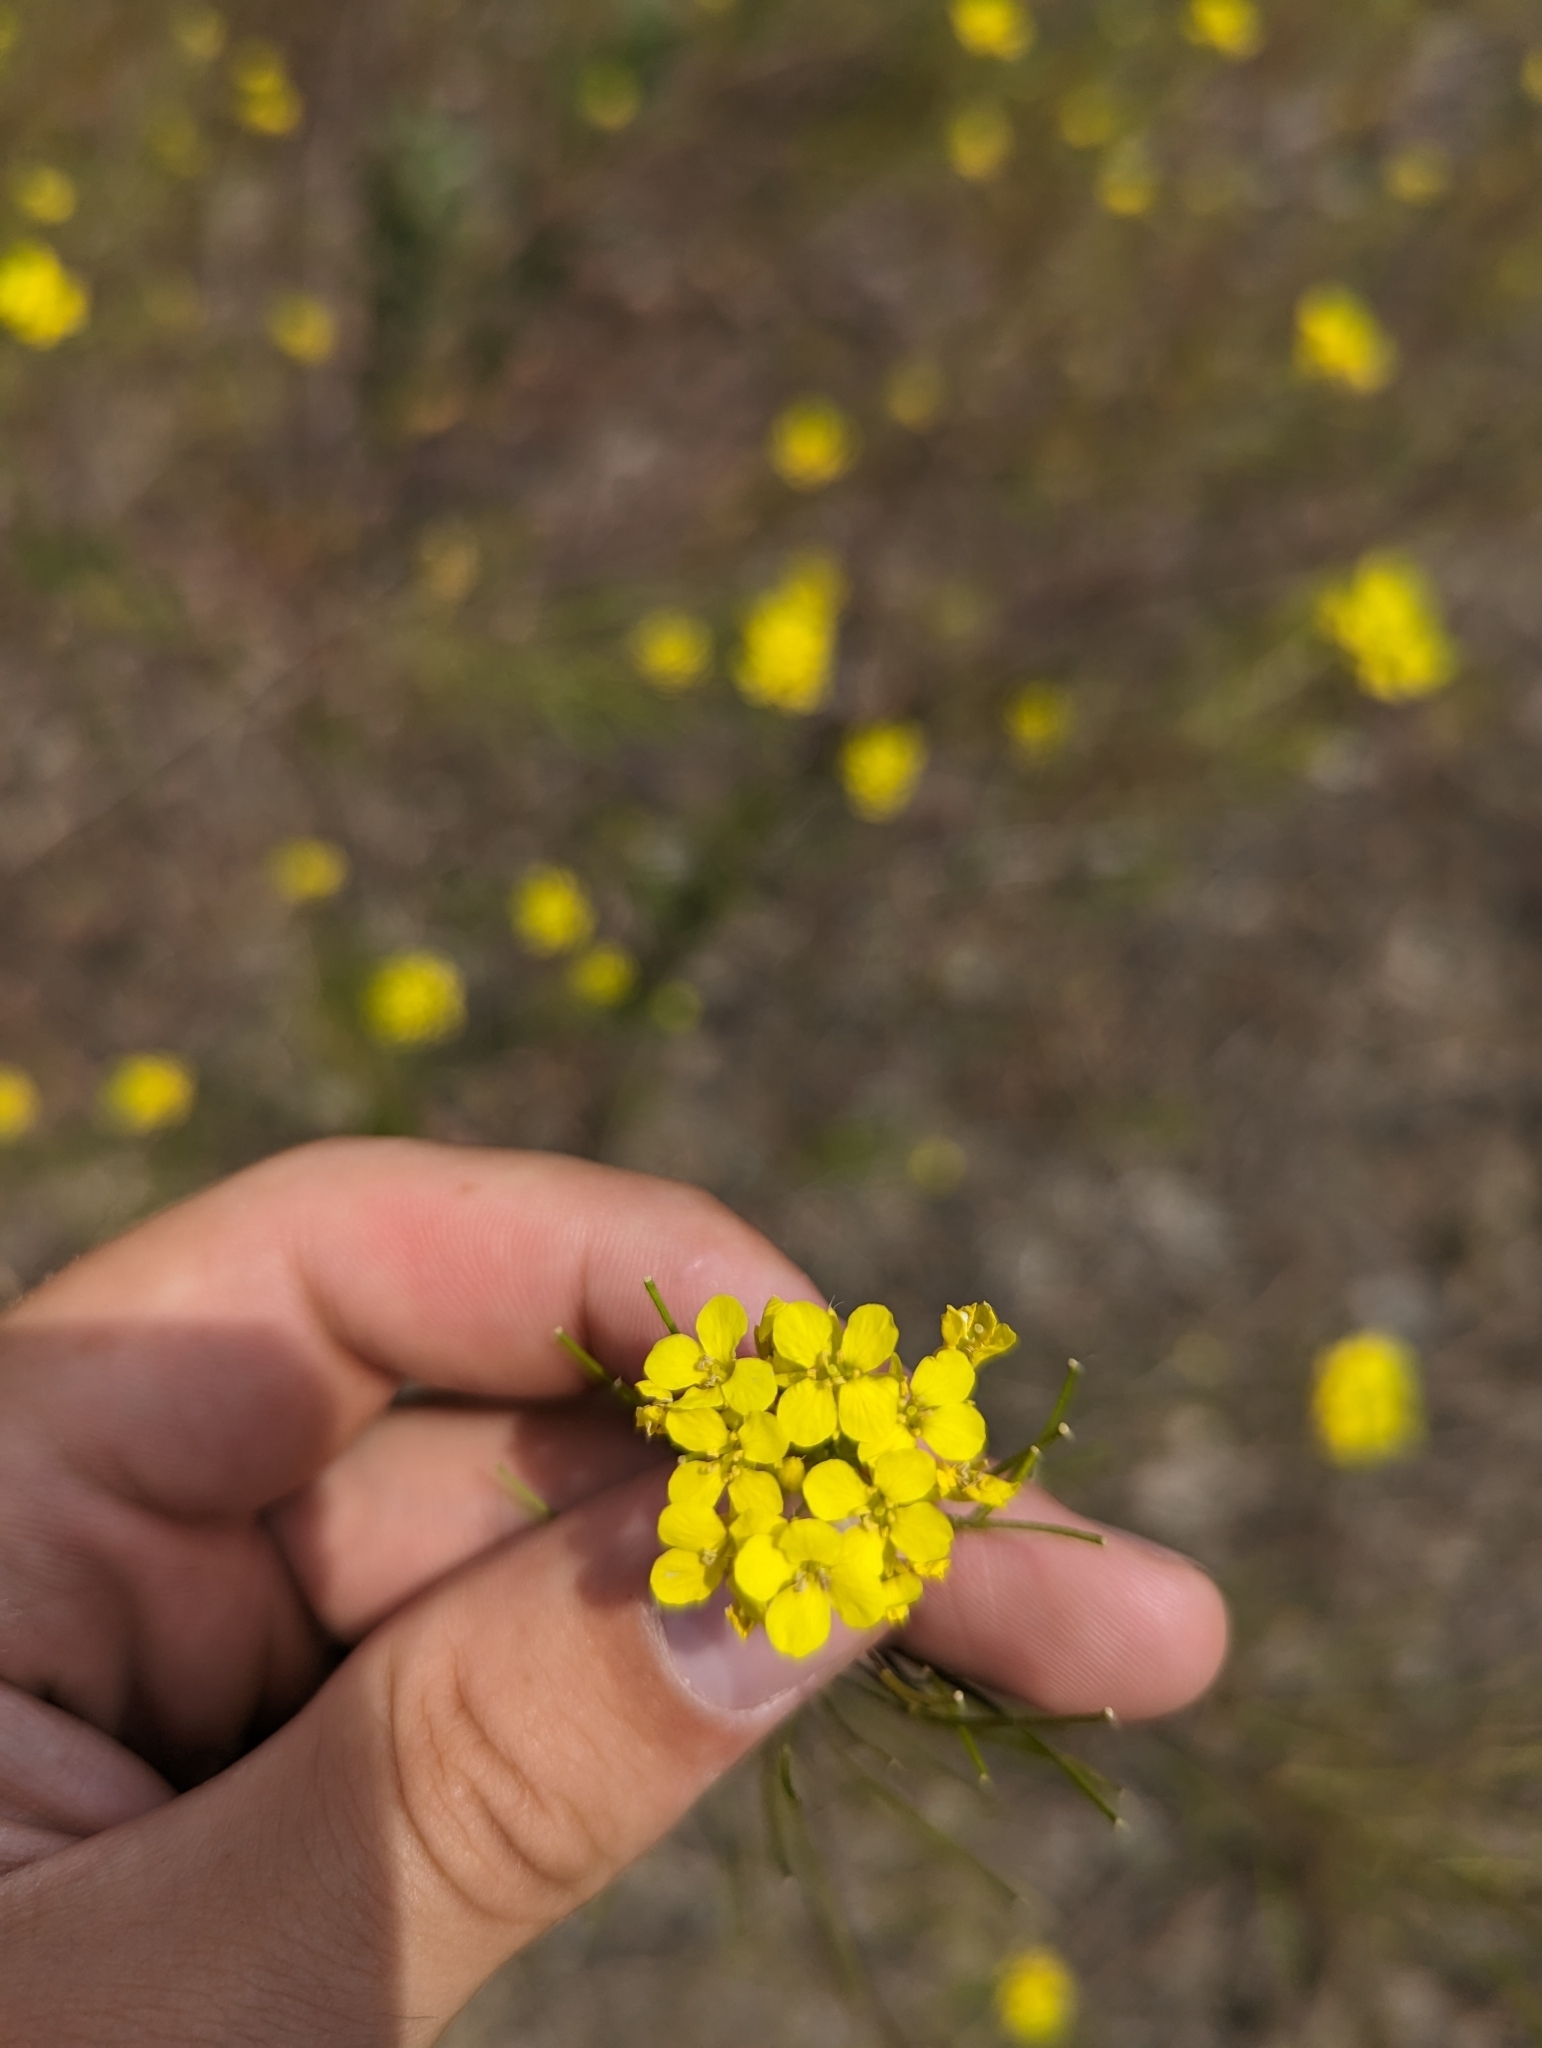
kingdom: Plantae
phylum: Tracheophyta
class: Magnoliopsida
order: Brassicales
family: Brassicaceae
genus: Sisymbrium
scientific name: Sisymbrium loeselii
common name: False london-rocket
